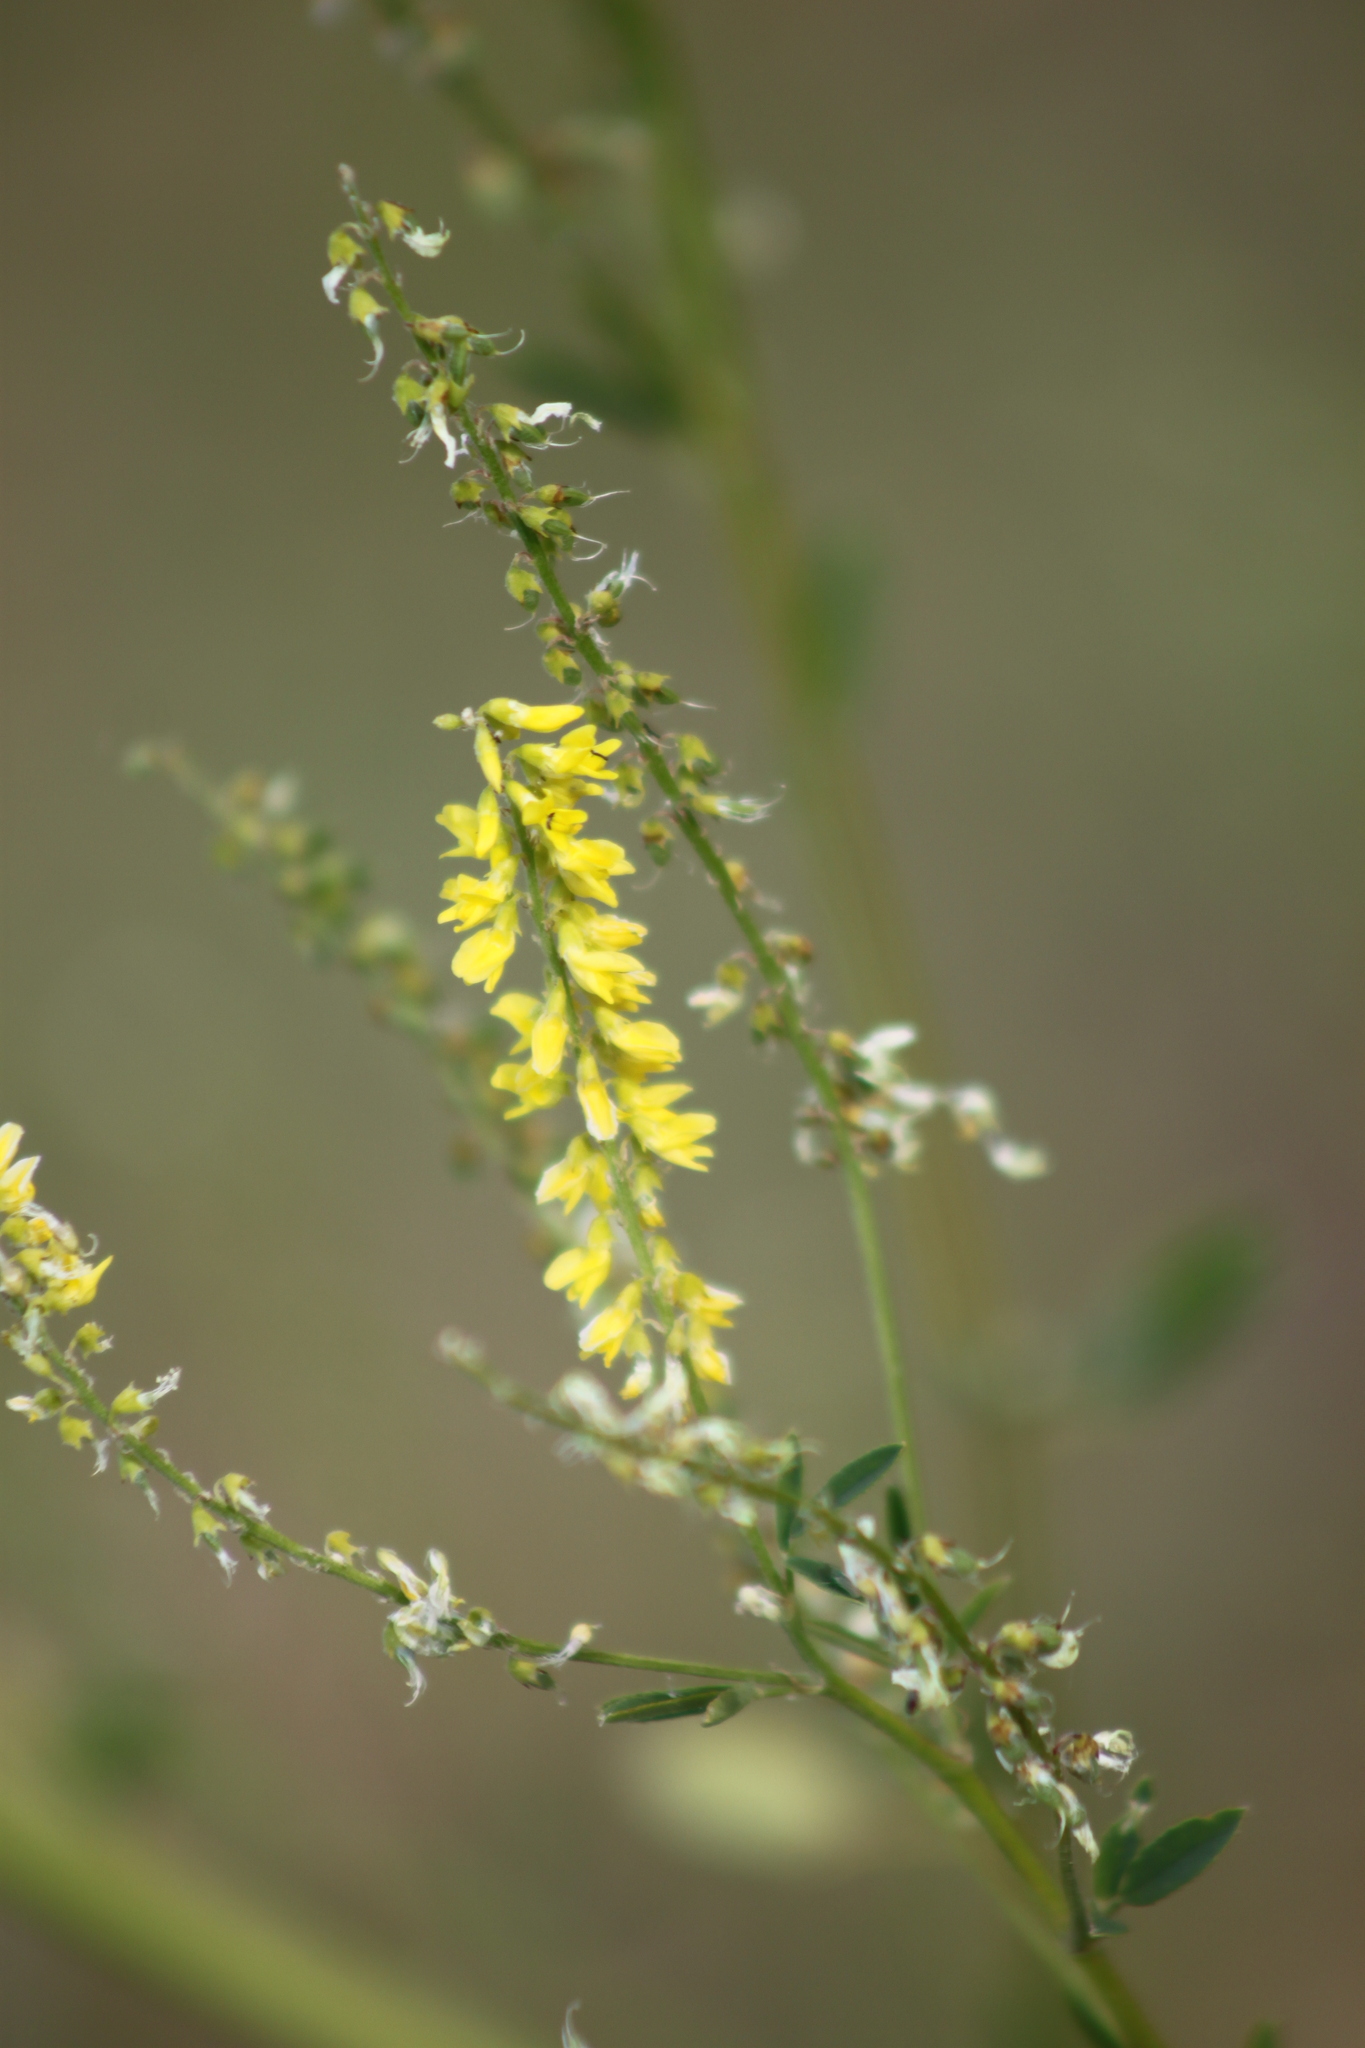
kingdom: Plantae
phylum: Tracheophyta
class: Magnoliopsida
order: Fabales
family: Fabaceae
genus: Melilotus
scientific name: Melilotus officinalis
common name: Sweetclover
